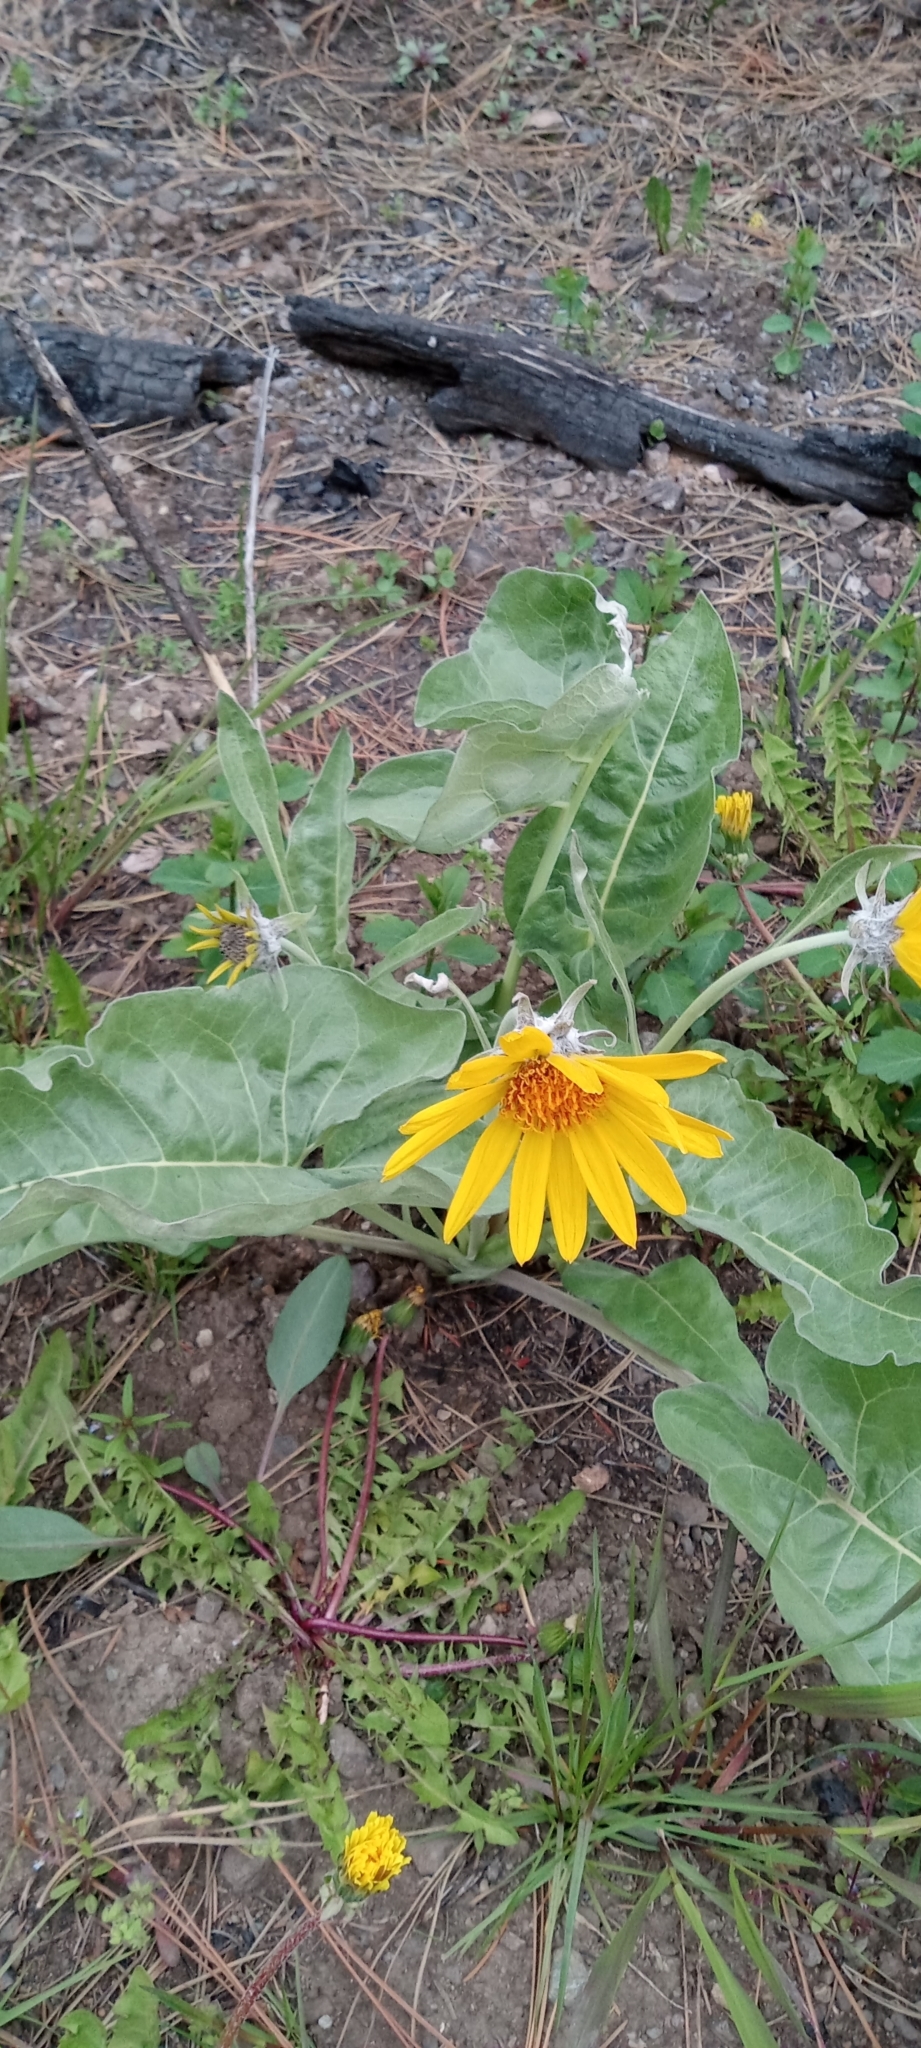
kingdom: Plantae
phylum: Tracheophyta
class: Magnoliopsida
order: Asterales
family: Asteraceae
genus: Wyethia
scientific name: Wyethia sagittata
